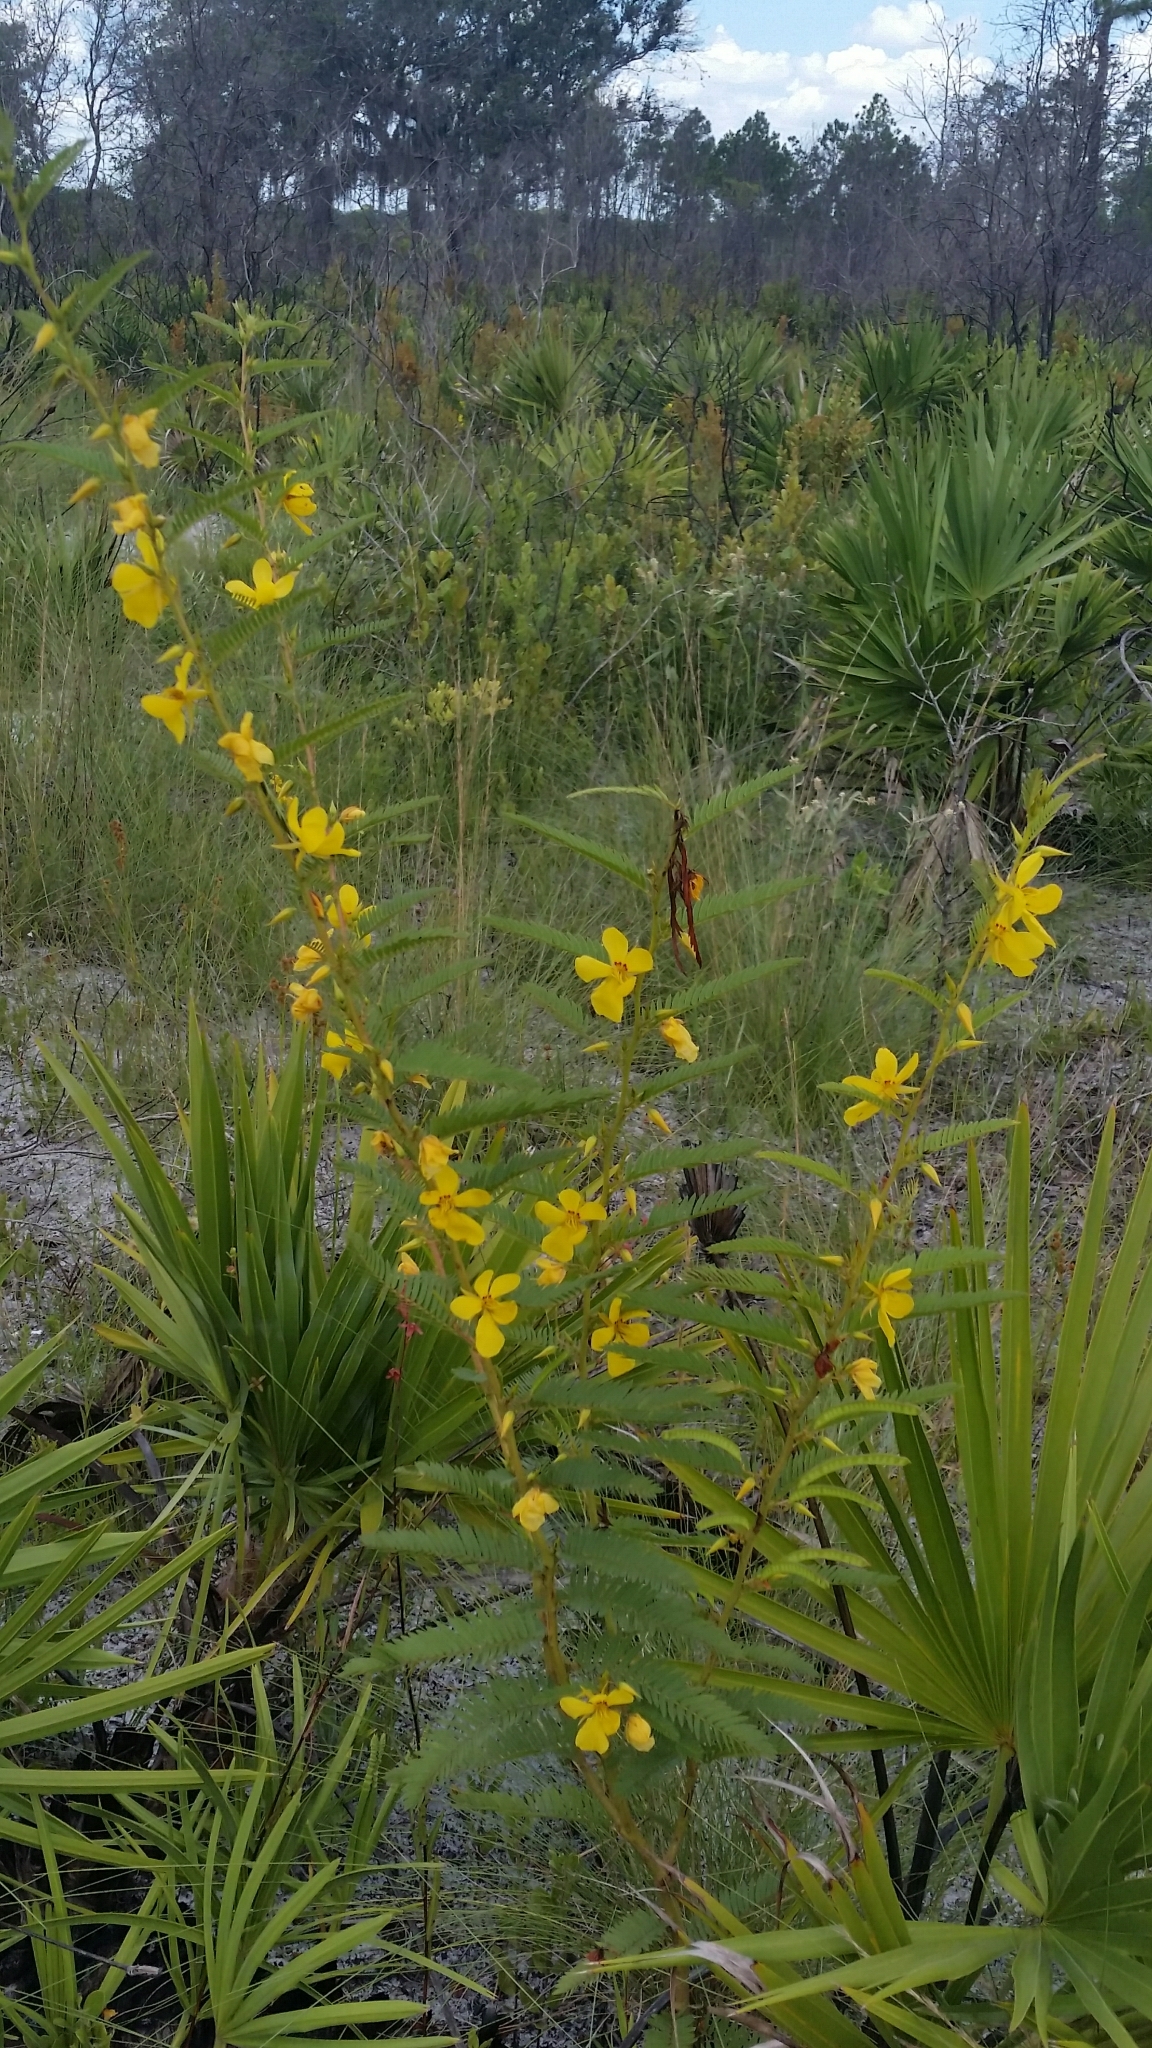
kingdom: Plantae
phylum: Tracheophyta
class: Magnoliopsida
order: Fabales
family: Fabaceae
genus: Chamaecrista
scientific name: Chamaecrista fasciculata
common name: Golden cassia
